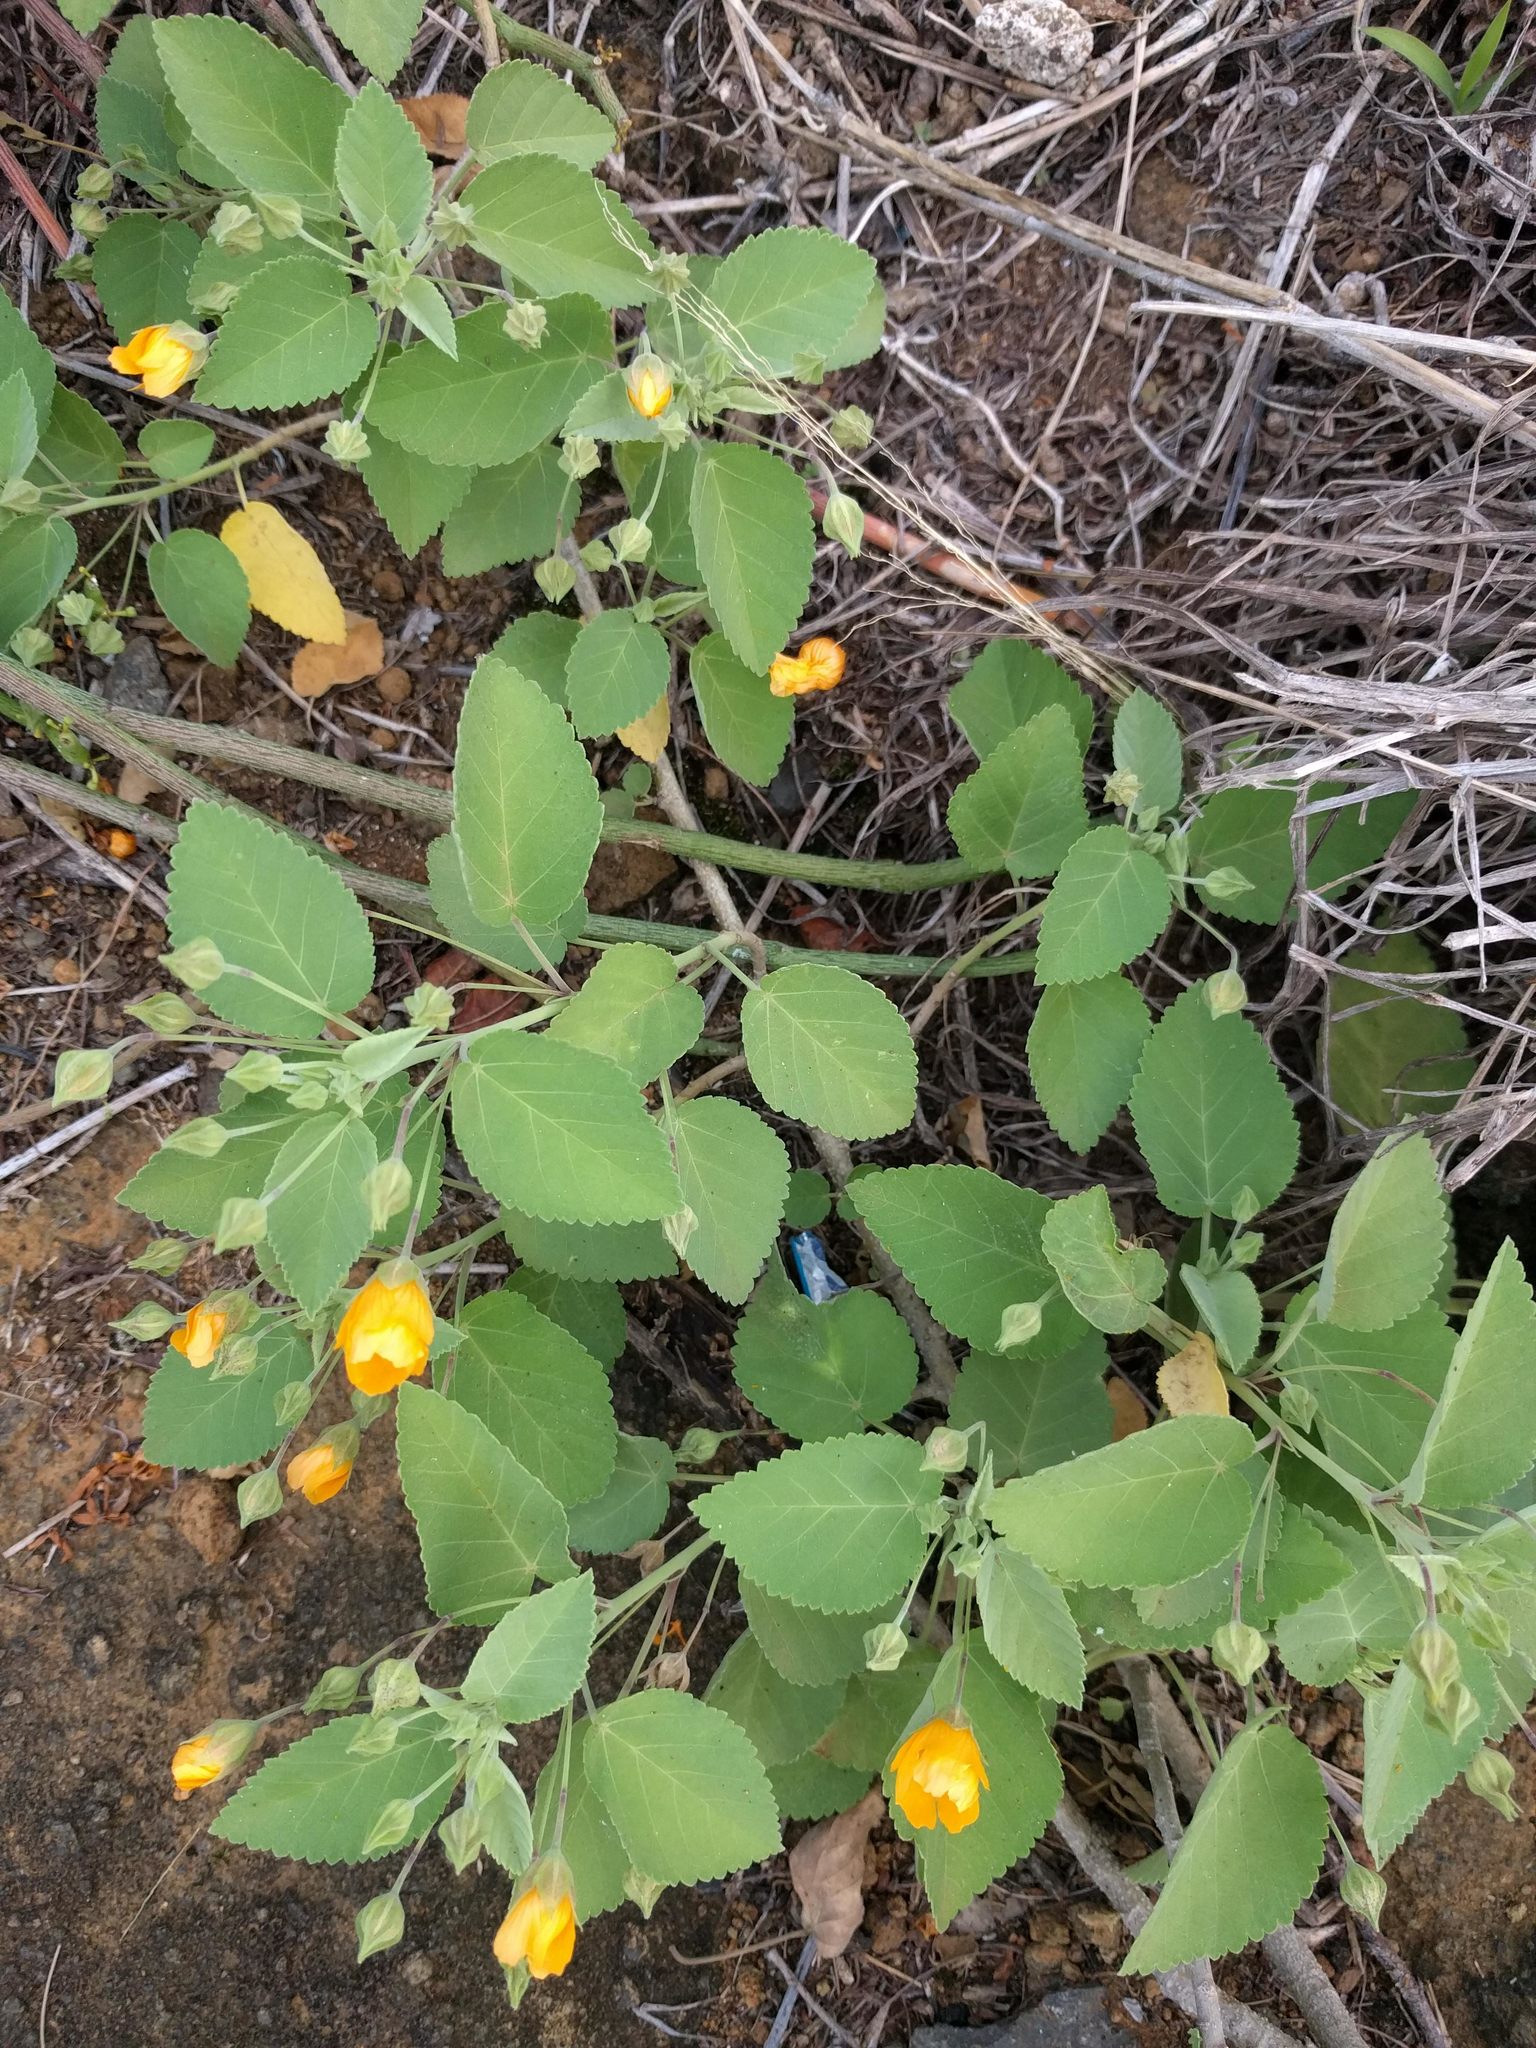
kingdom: Plantae
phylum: Tracheophyta
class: Magnoliopsida
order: Malvales
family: Malvaceae
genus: Sida
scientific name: Sida fallax
